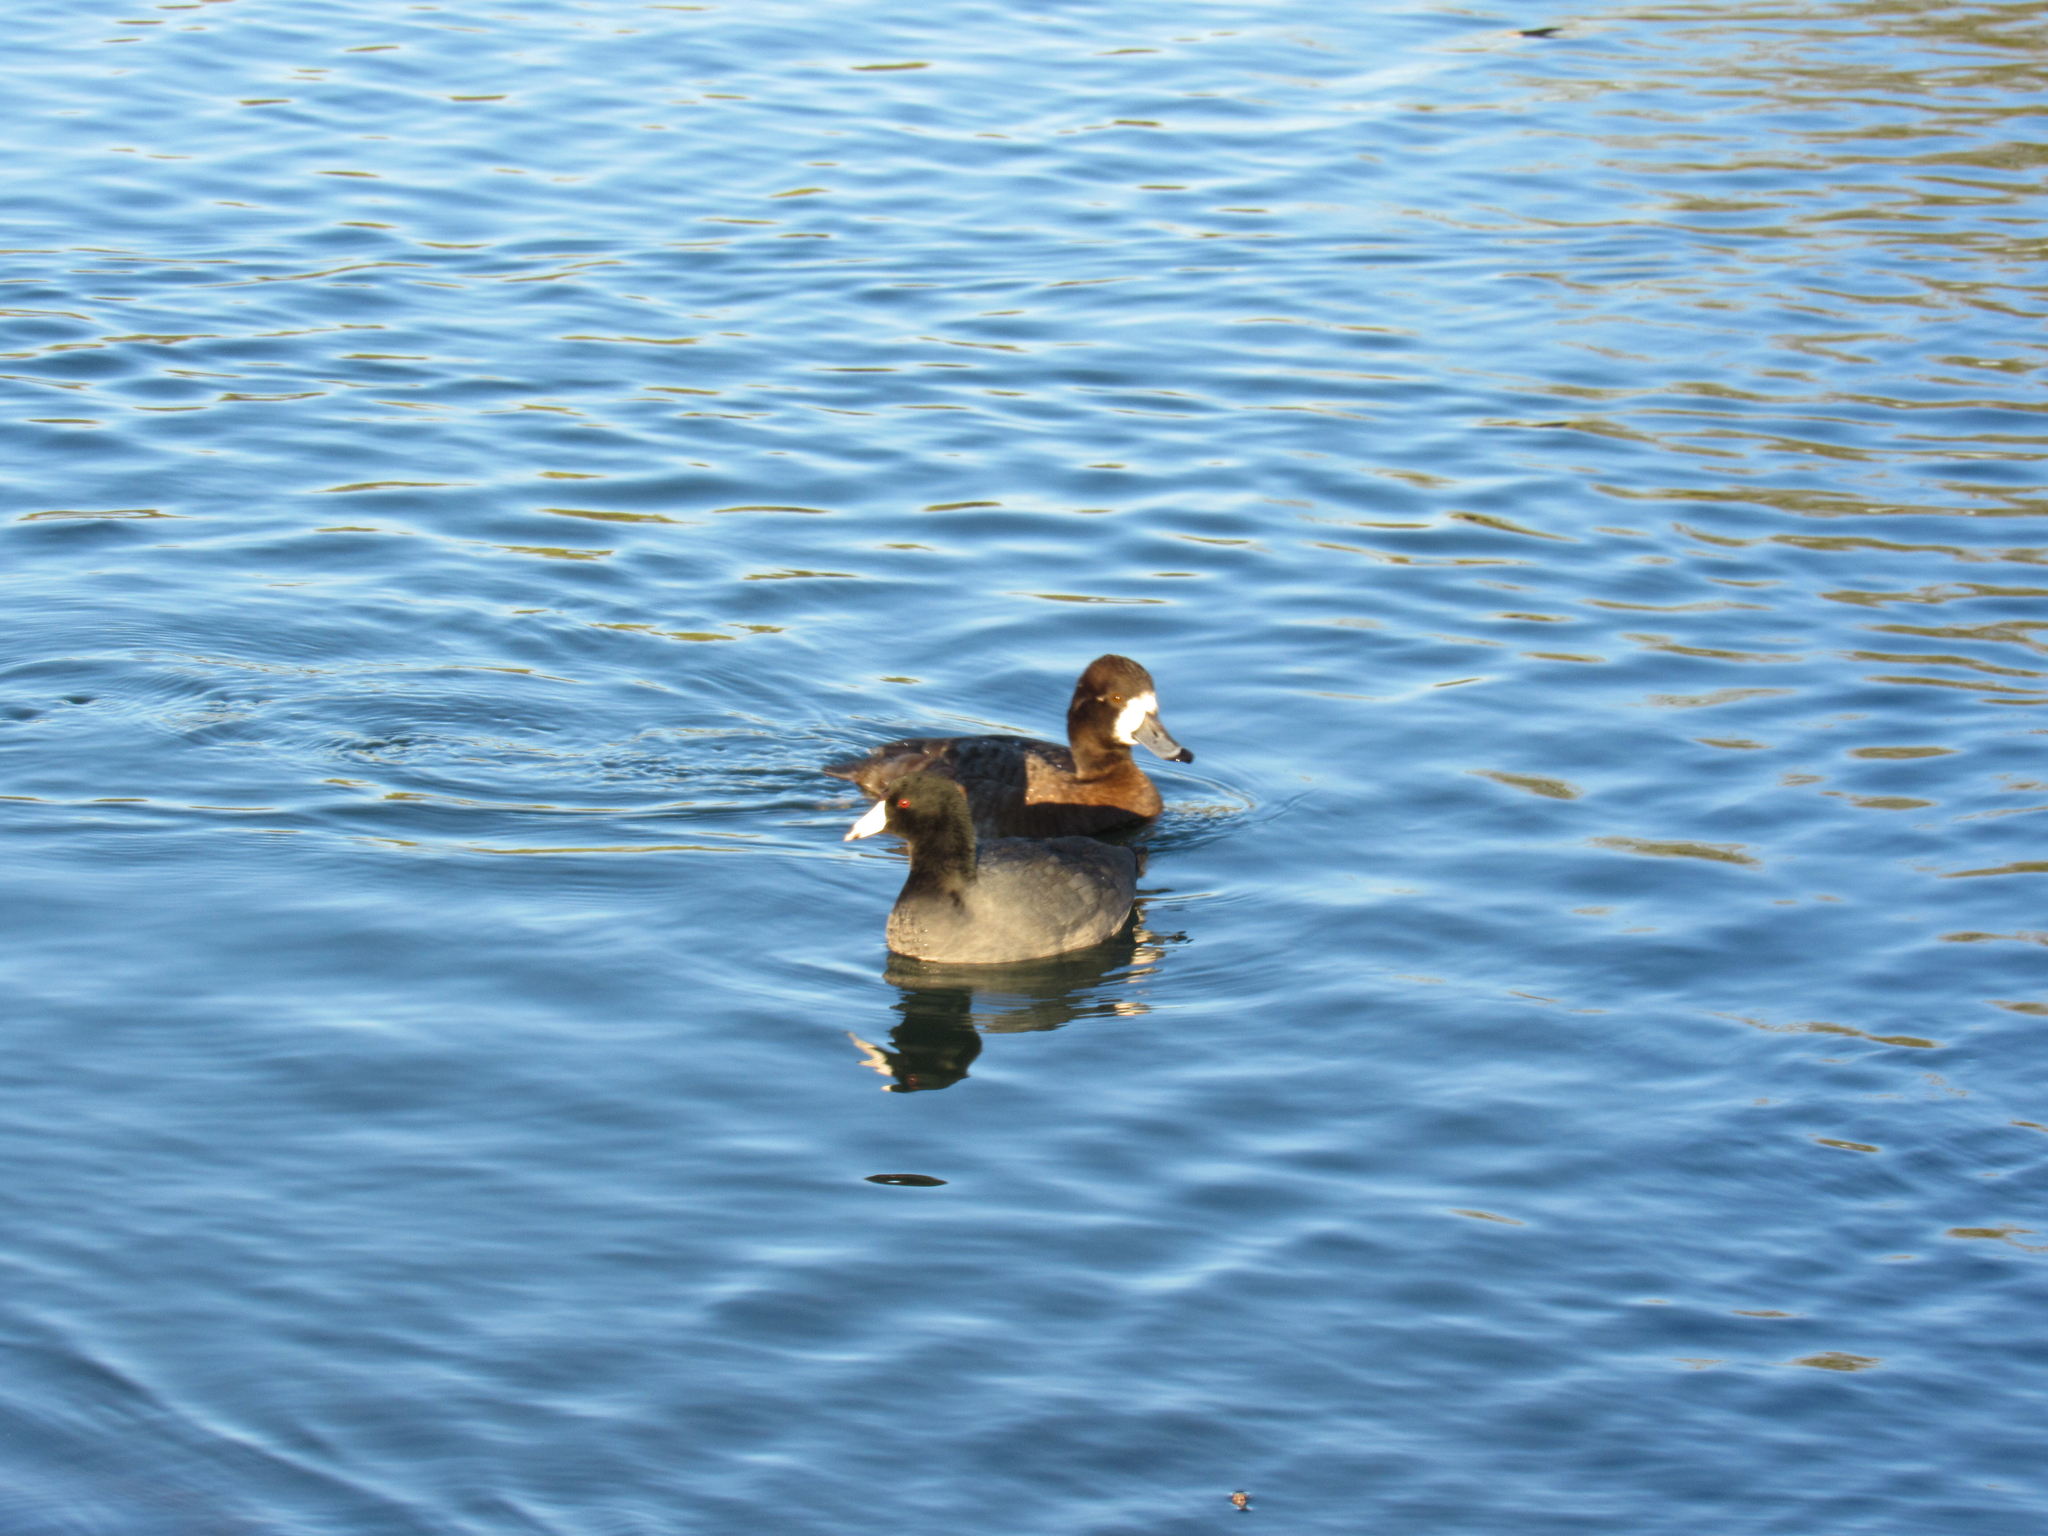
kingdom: Animalia
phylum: Chordata
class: Aves
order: Anseriformes
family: Anatidae
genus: Aythya
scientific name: Aythya affinis
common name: Lesser scaup
